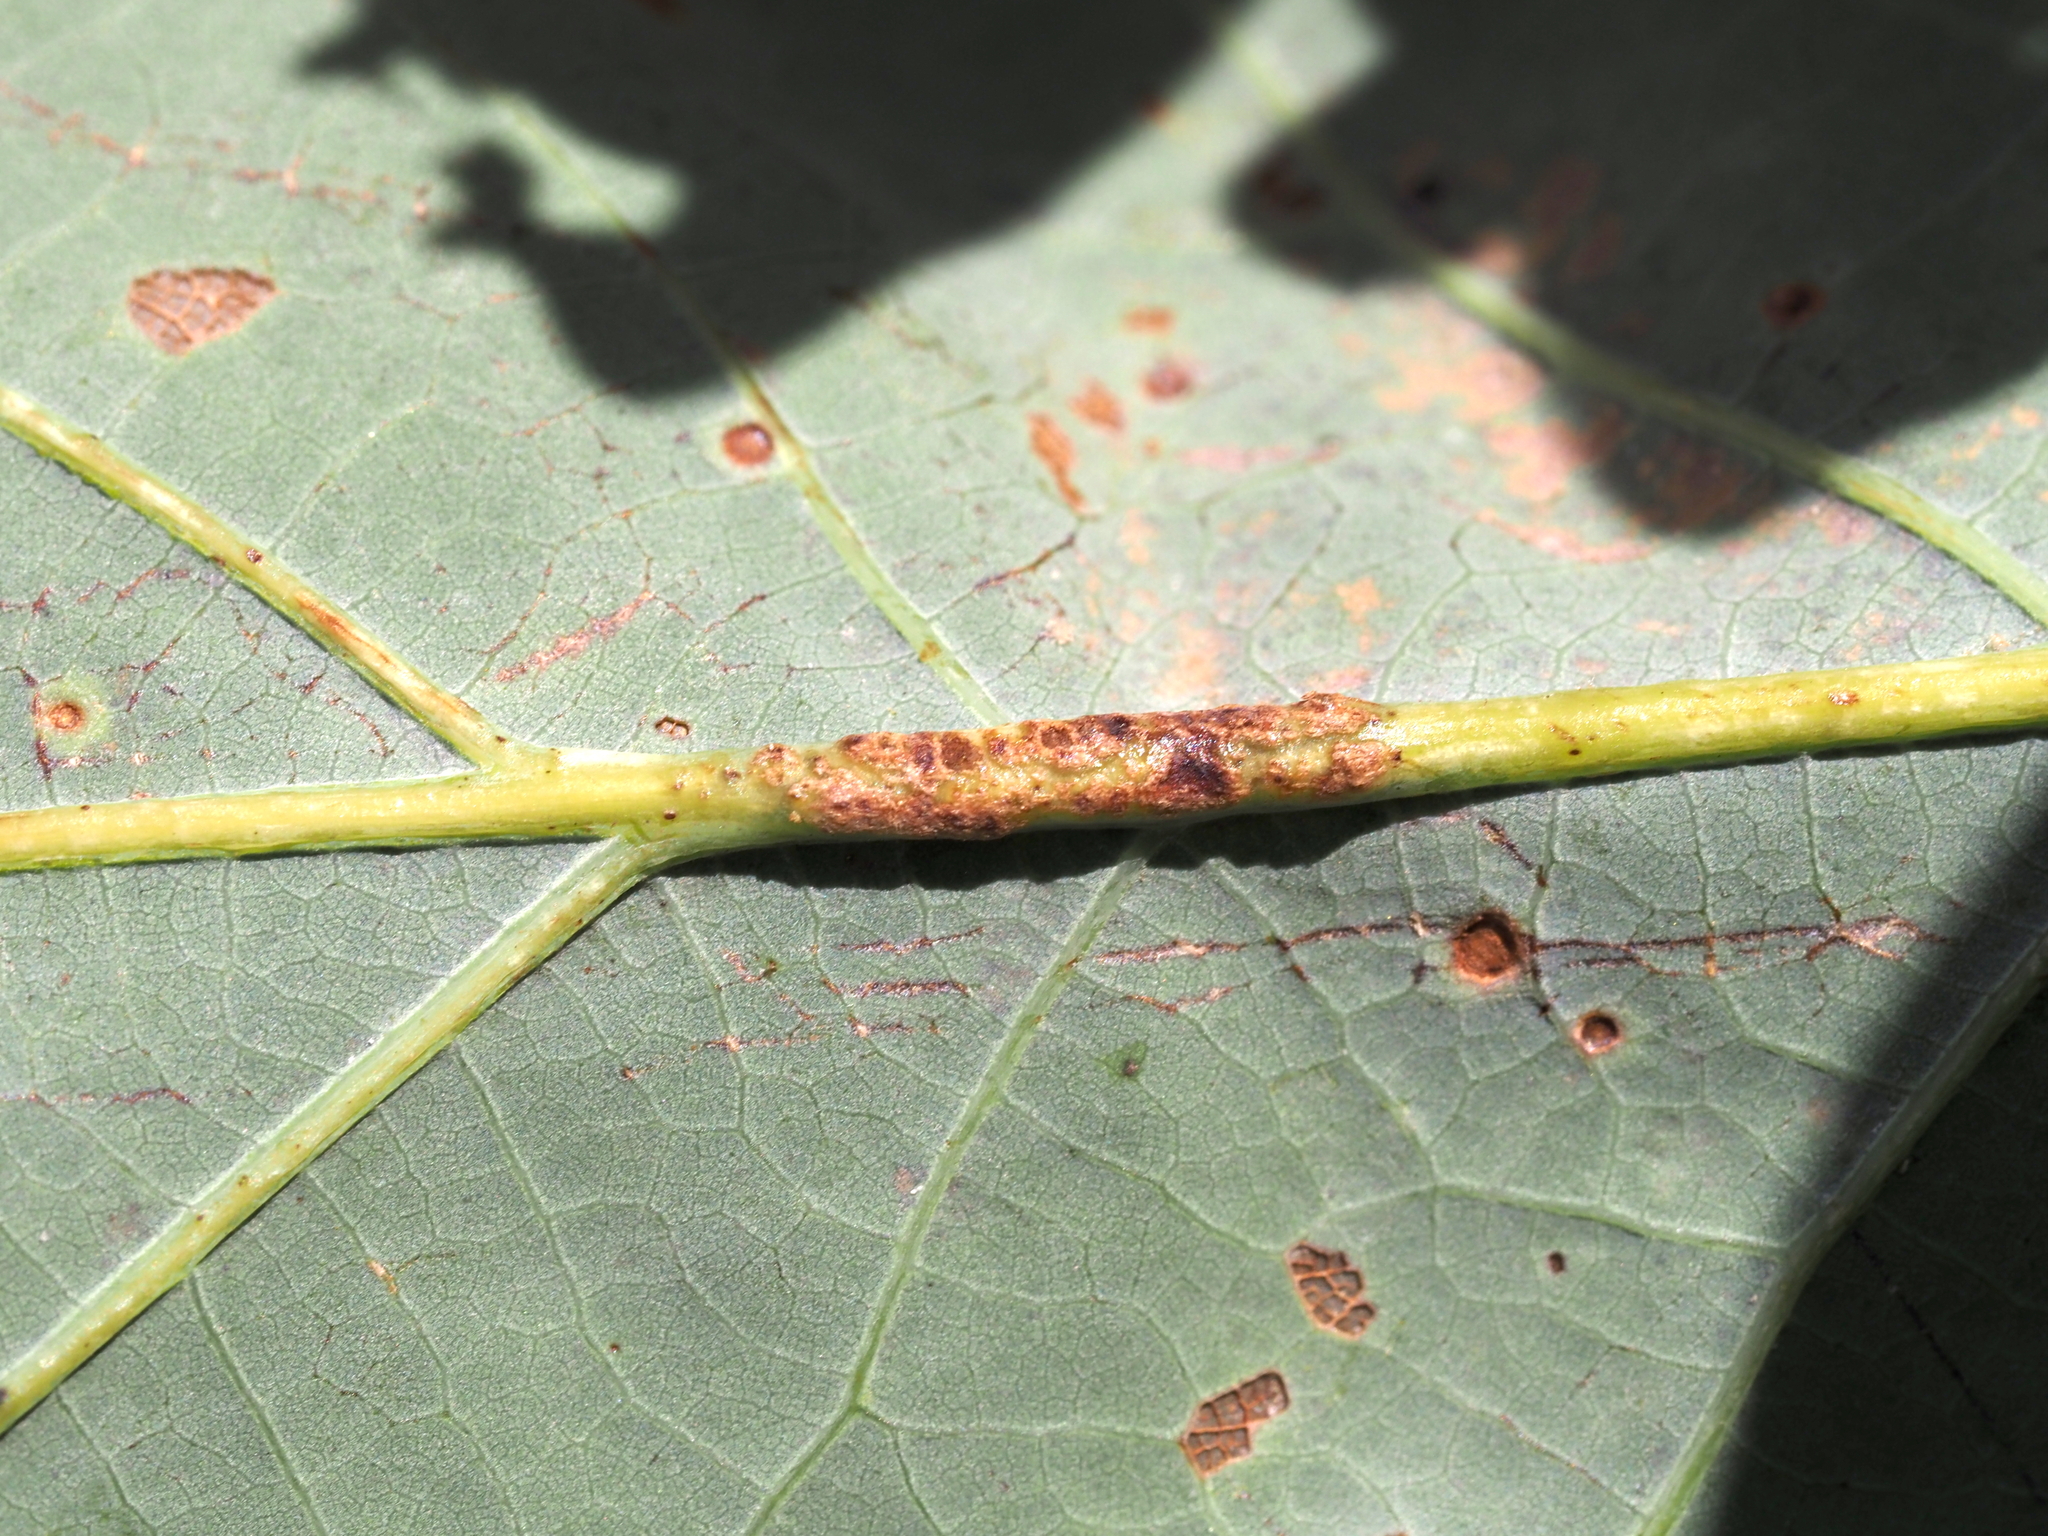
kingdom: Animalia
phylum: Arthropoda
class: Insecta
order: Hymenoptera
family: Cynipidae
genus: Andricus
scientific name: Andricus
